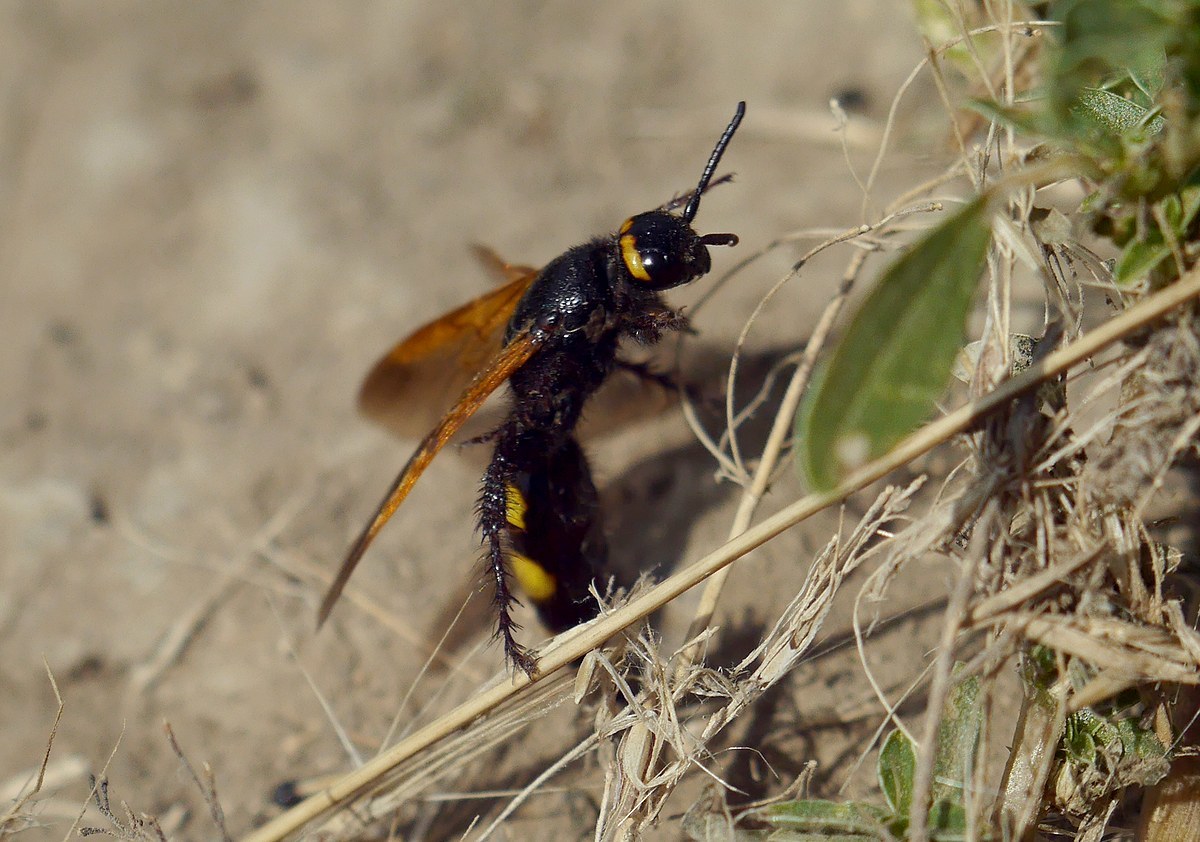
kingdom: Animalia
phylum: Arthropoda
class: Insecta
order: Hymenoptera
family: Scoliidae
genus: Scolia
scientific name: Scolia fuciformis
